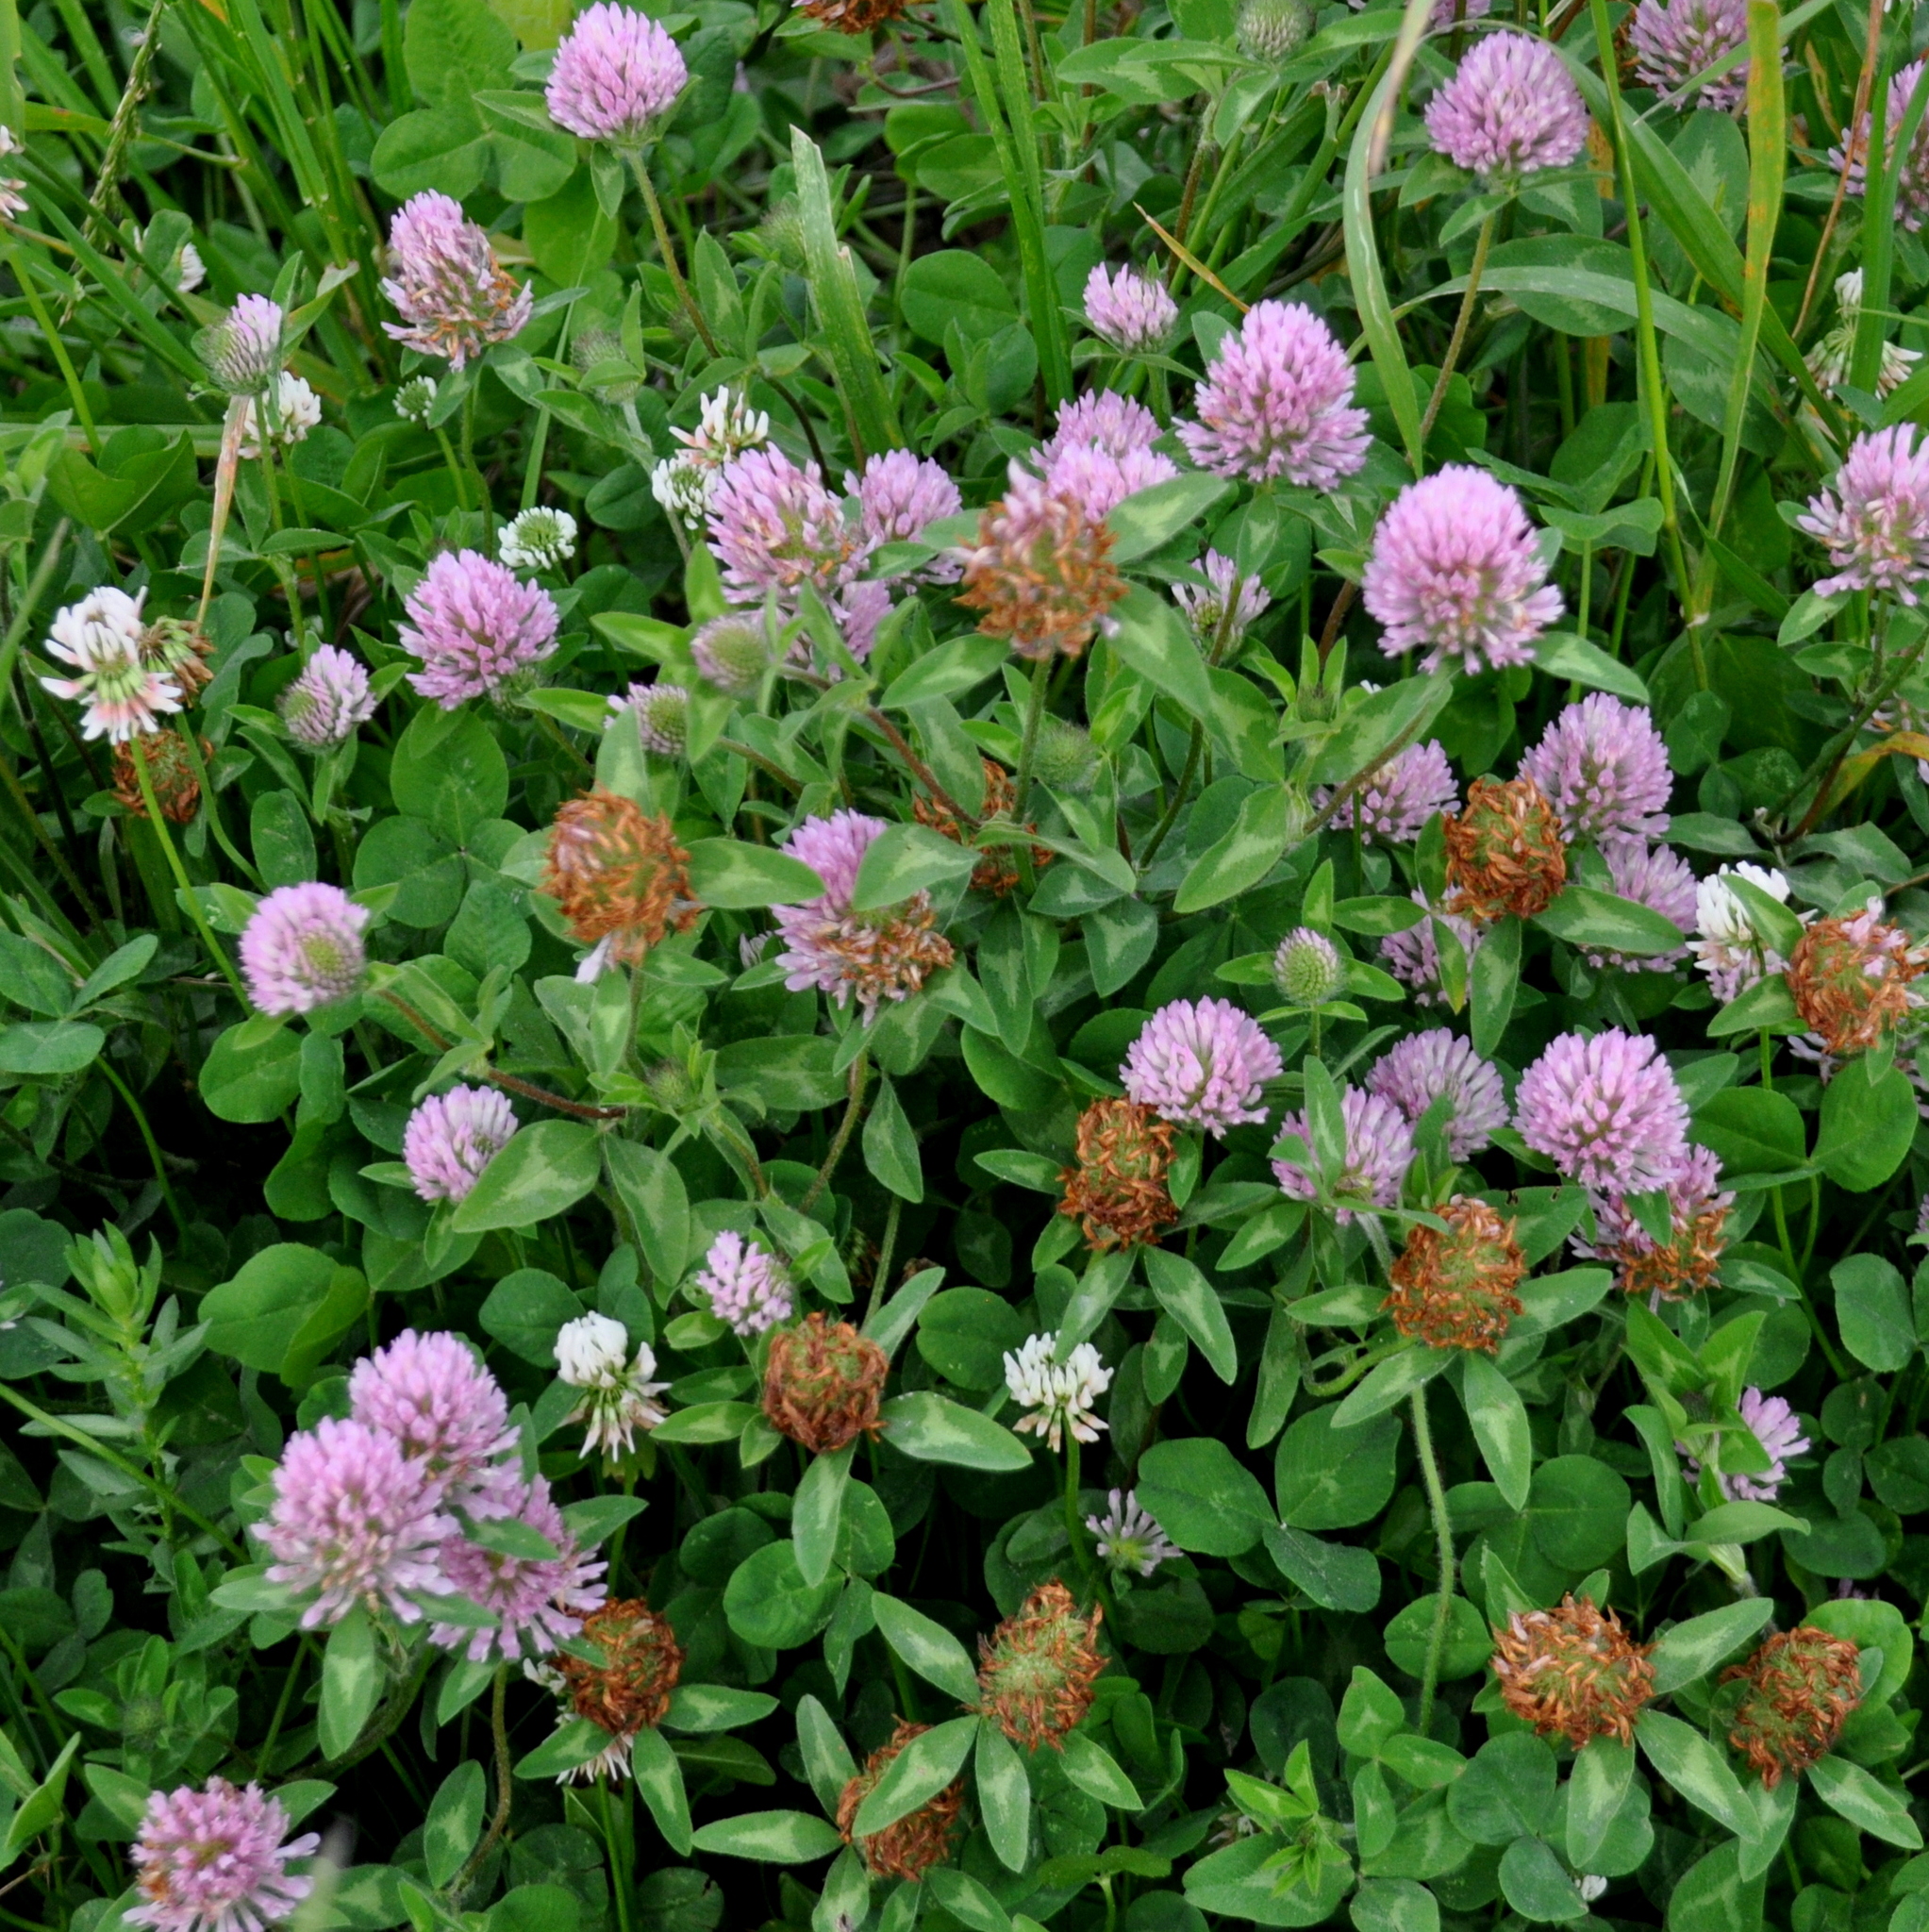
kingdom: Plantae
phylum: Tracheophyta
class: Magnoliopsida
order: Fabales
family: Fabaceae
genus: Trifolium
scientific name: Trifolium pratense
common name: Red clover
